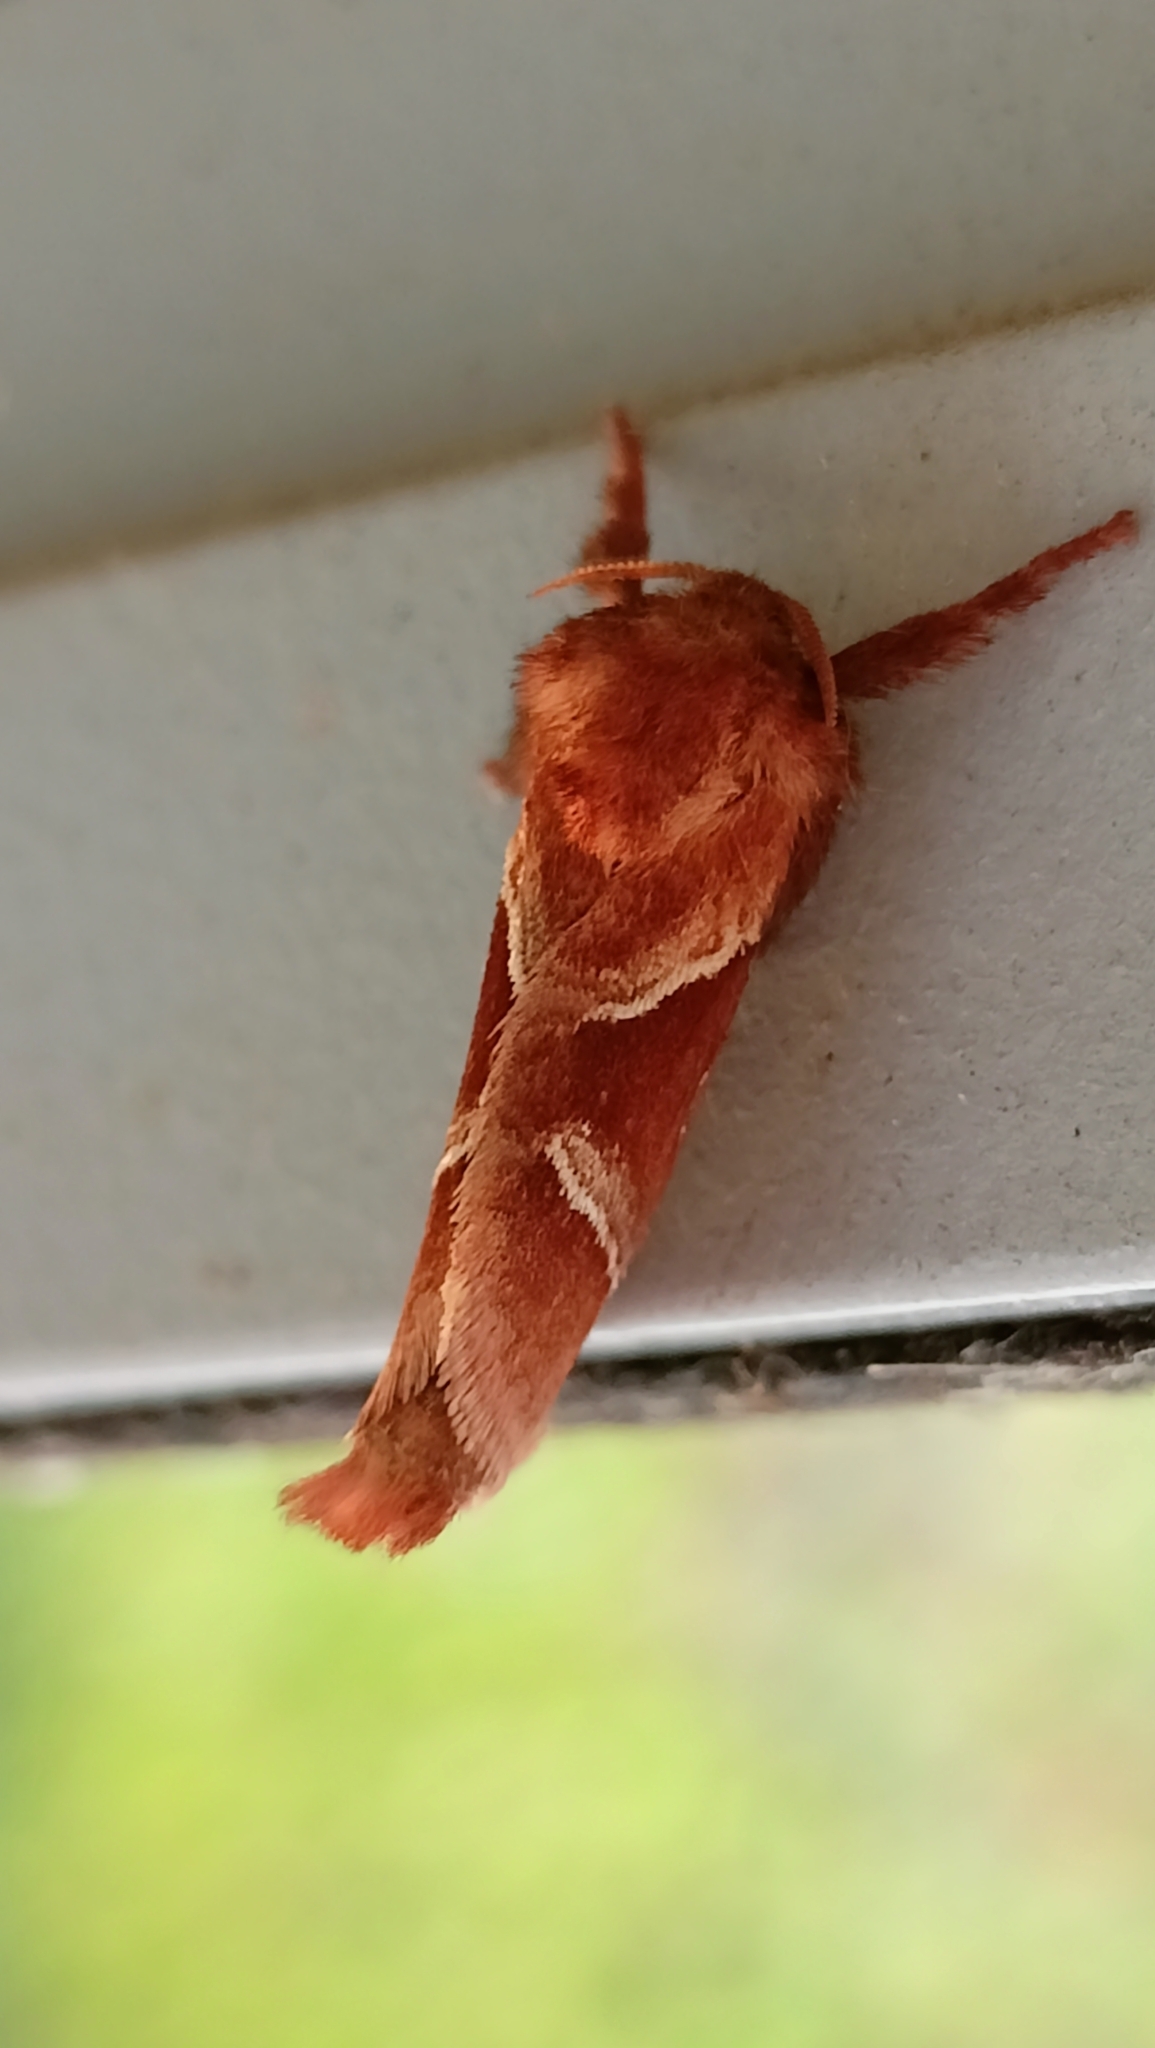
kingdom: Animalia
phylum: Arthropoda
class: Insecta
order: Lepidoptera
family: Hepialidae
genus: Triodia
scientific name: Triodia sylvina
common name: Orange swift
